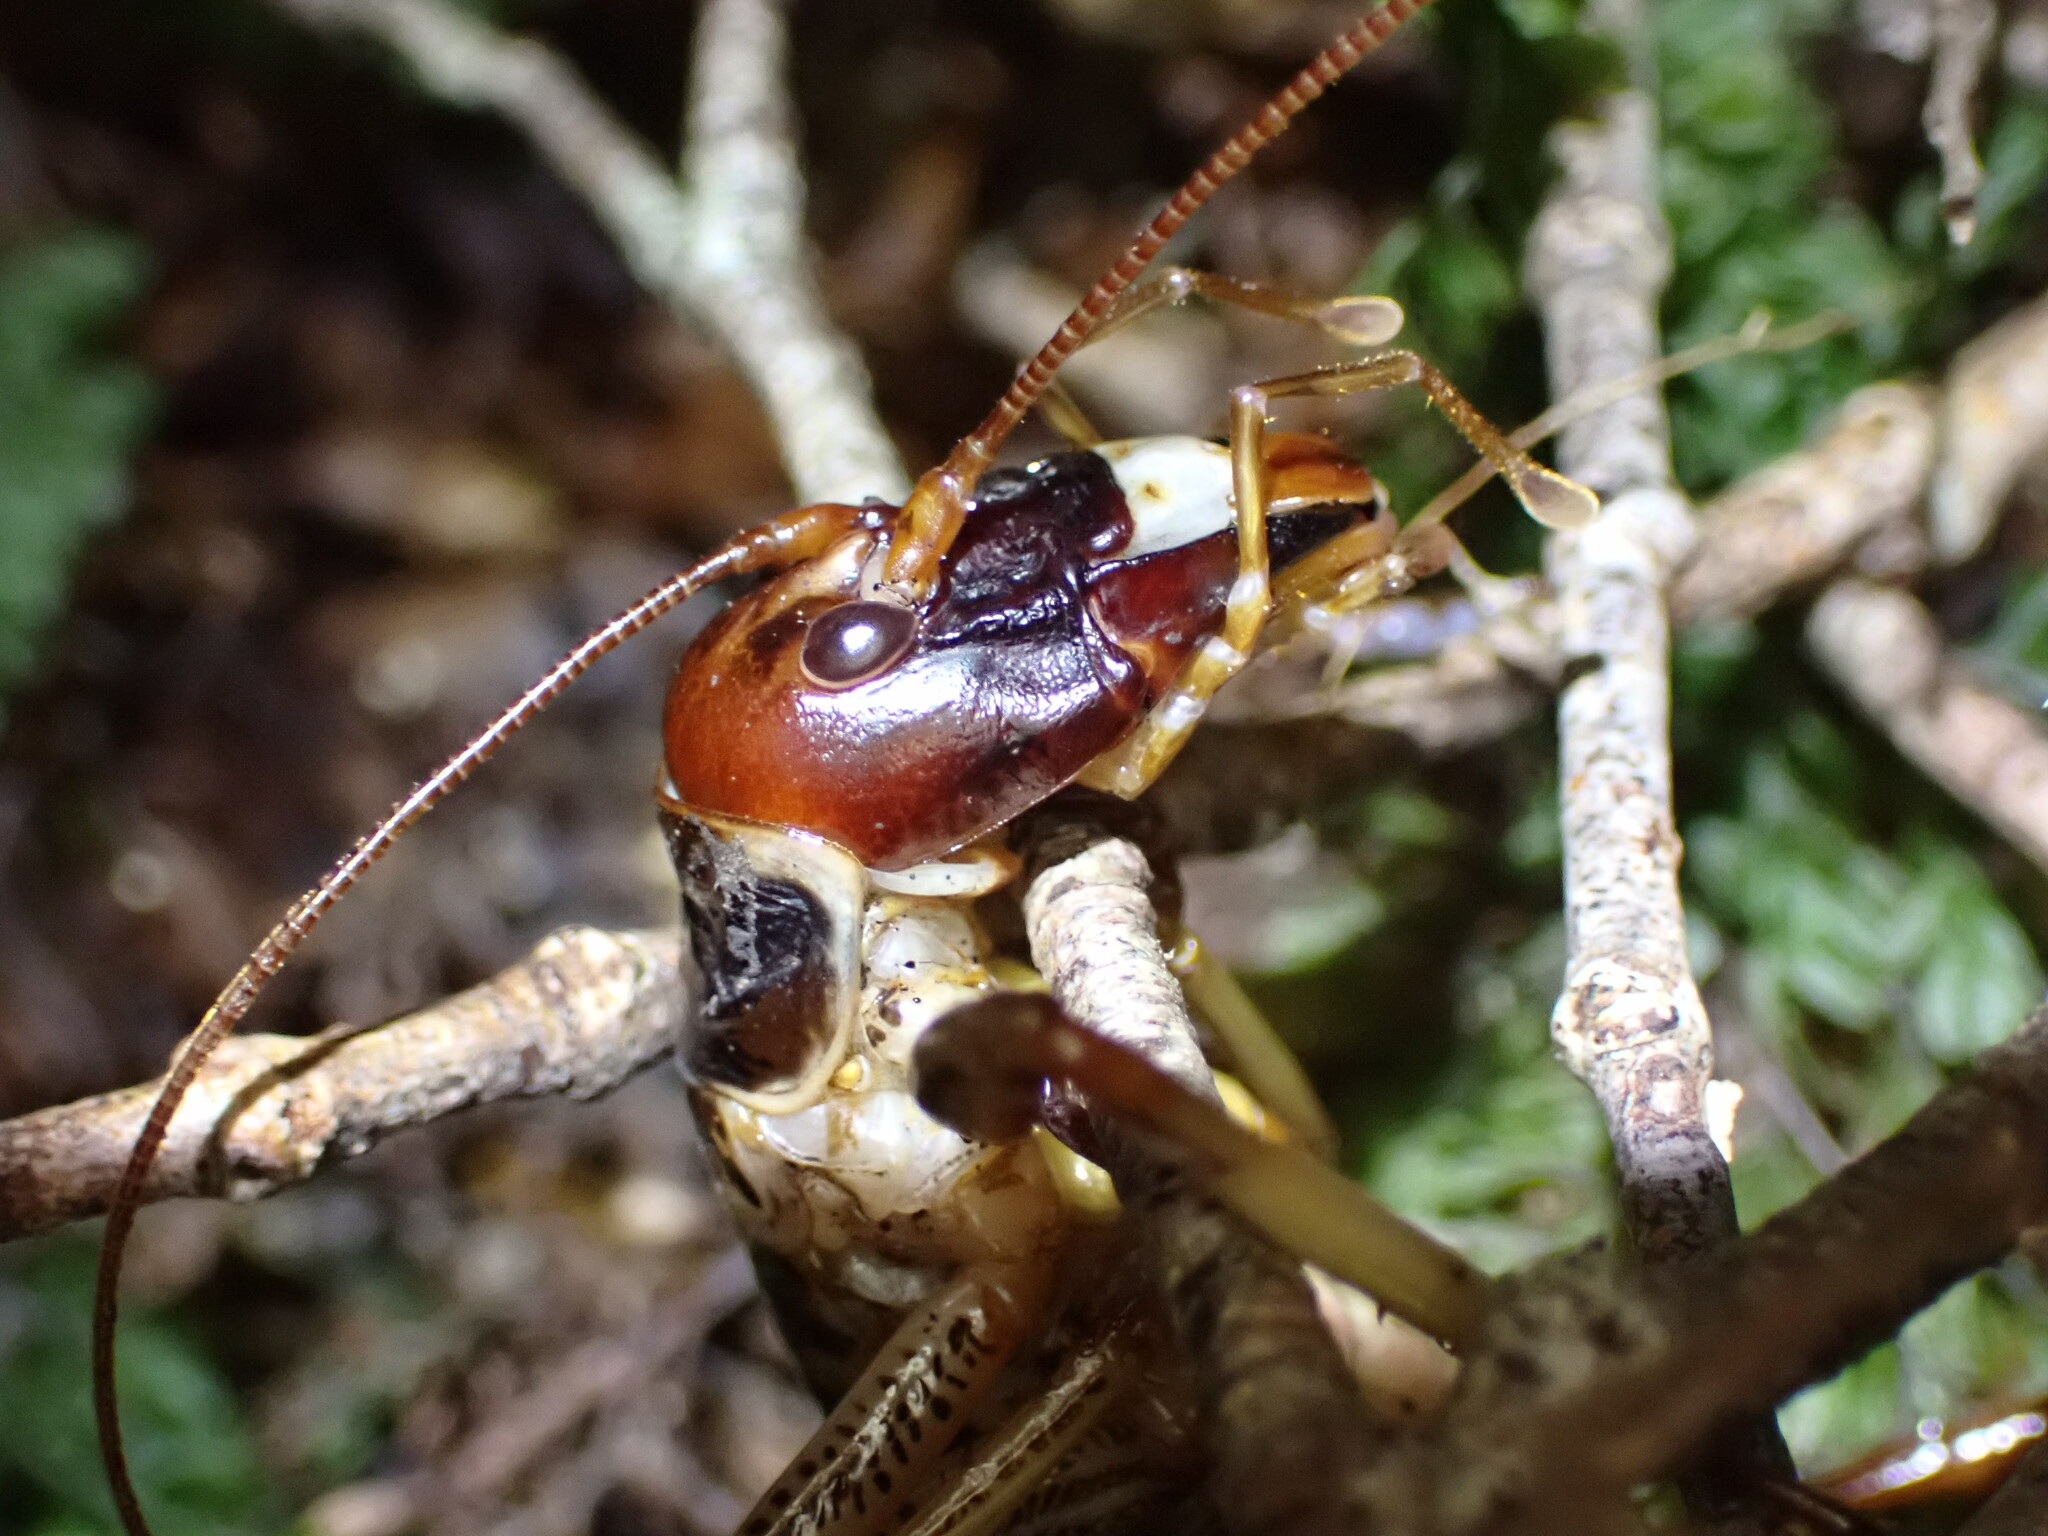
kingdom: Animalia
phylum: Arthropoda
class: Insecta
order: Orthoptera
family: Anostostomatidae
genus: Hemideina
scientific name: Hemideina crassidens
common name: Wellington tree weta
